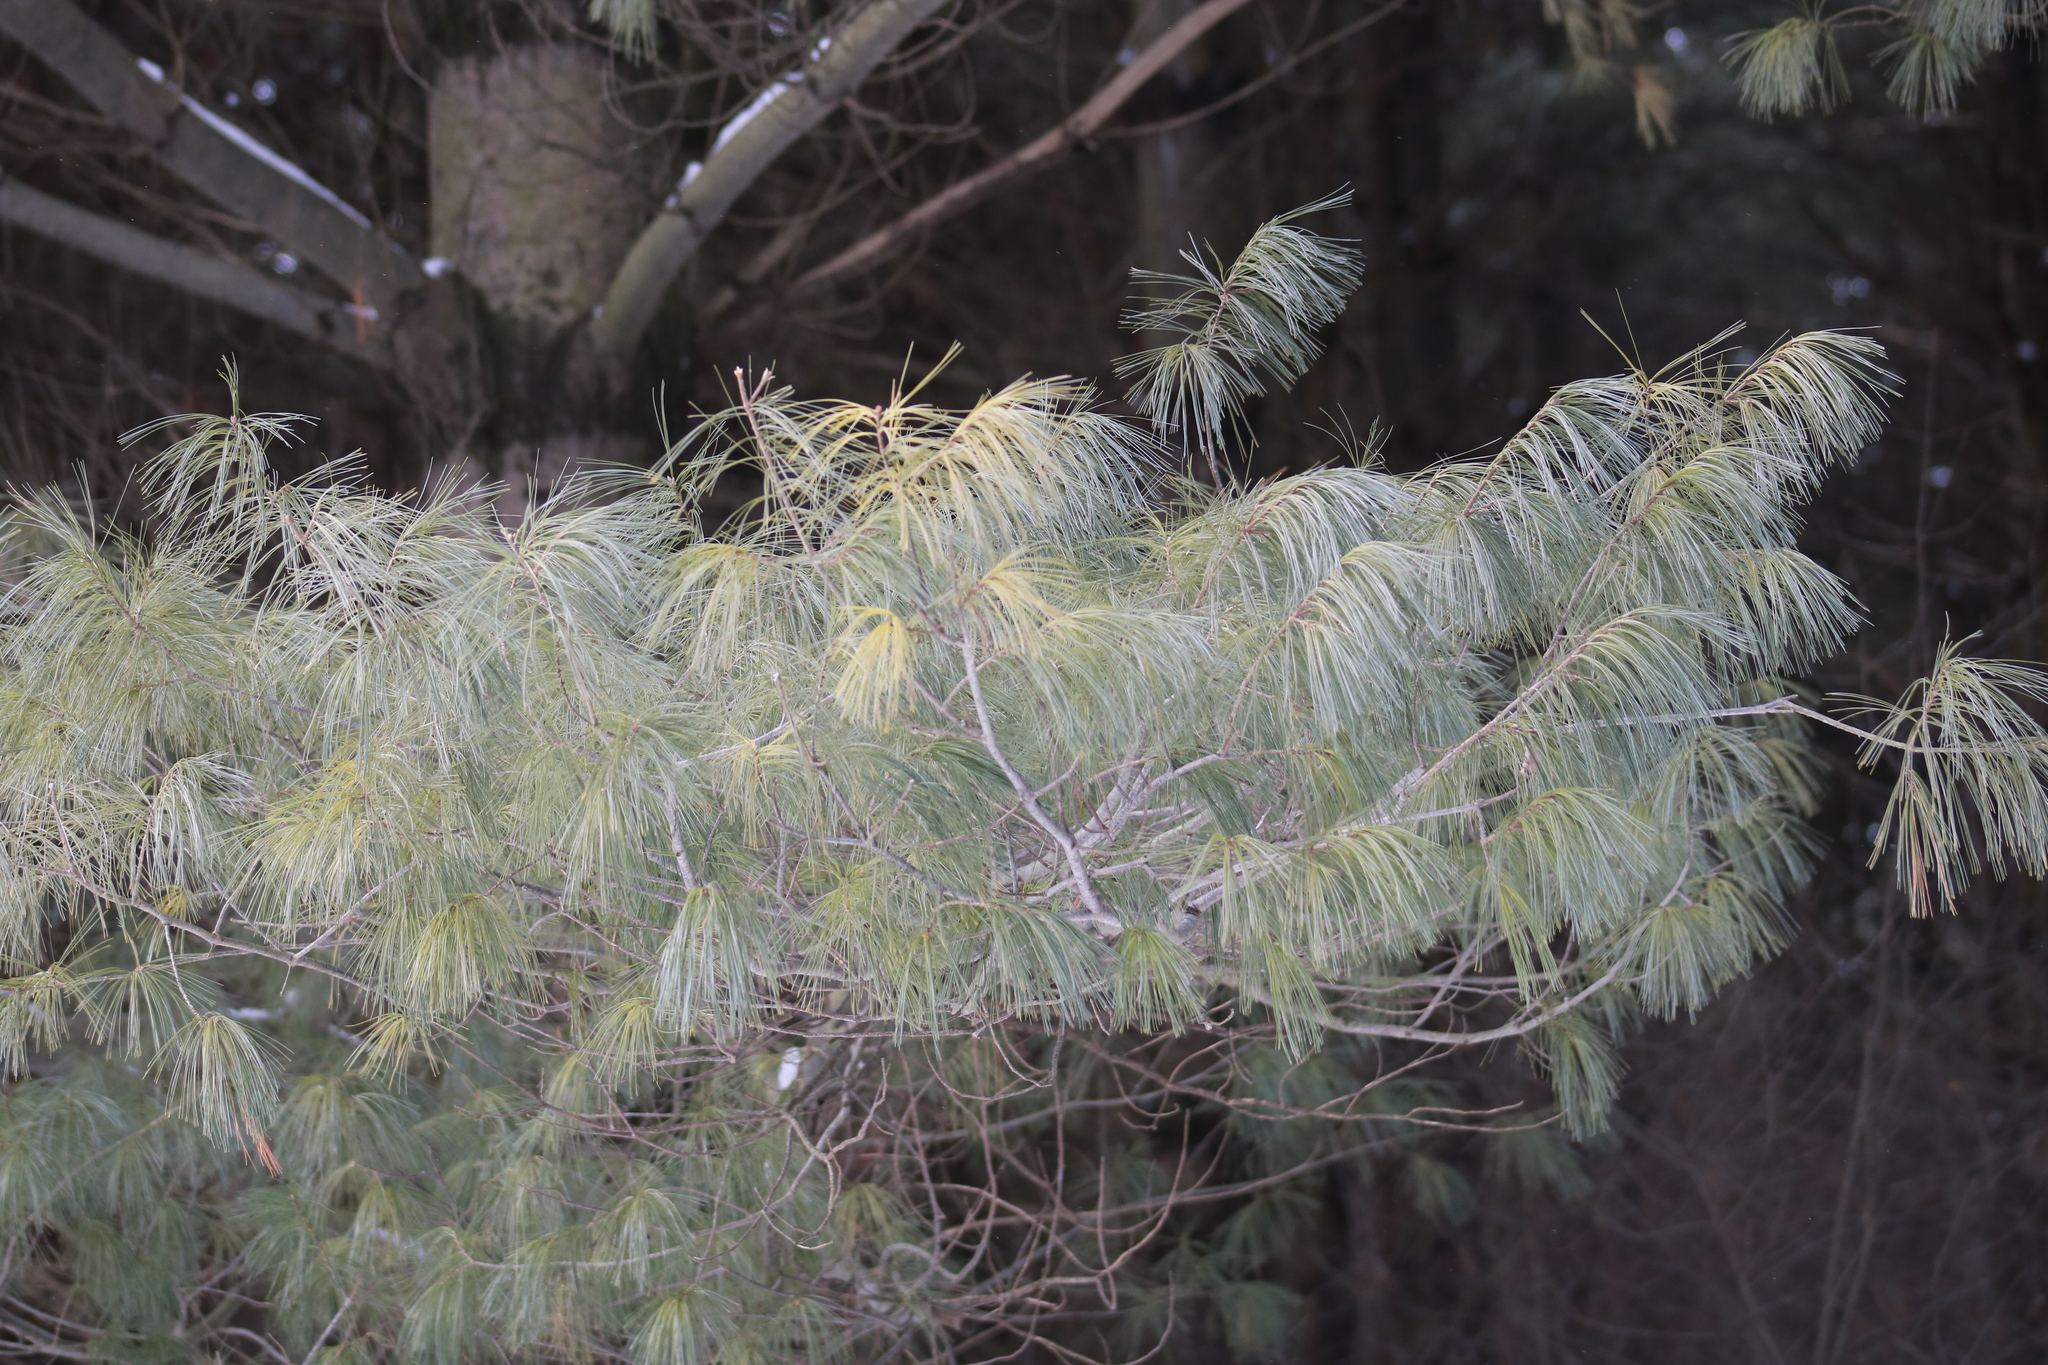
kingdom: Plantae
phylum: Tracheophyta
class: Pinopsida
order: Pinales
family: Pinaceae
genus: Pinus
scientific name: Pinus strobus
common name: Weymouth pine
